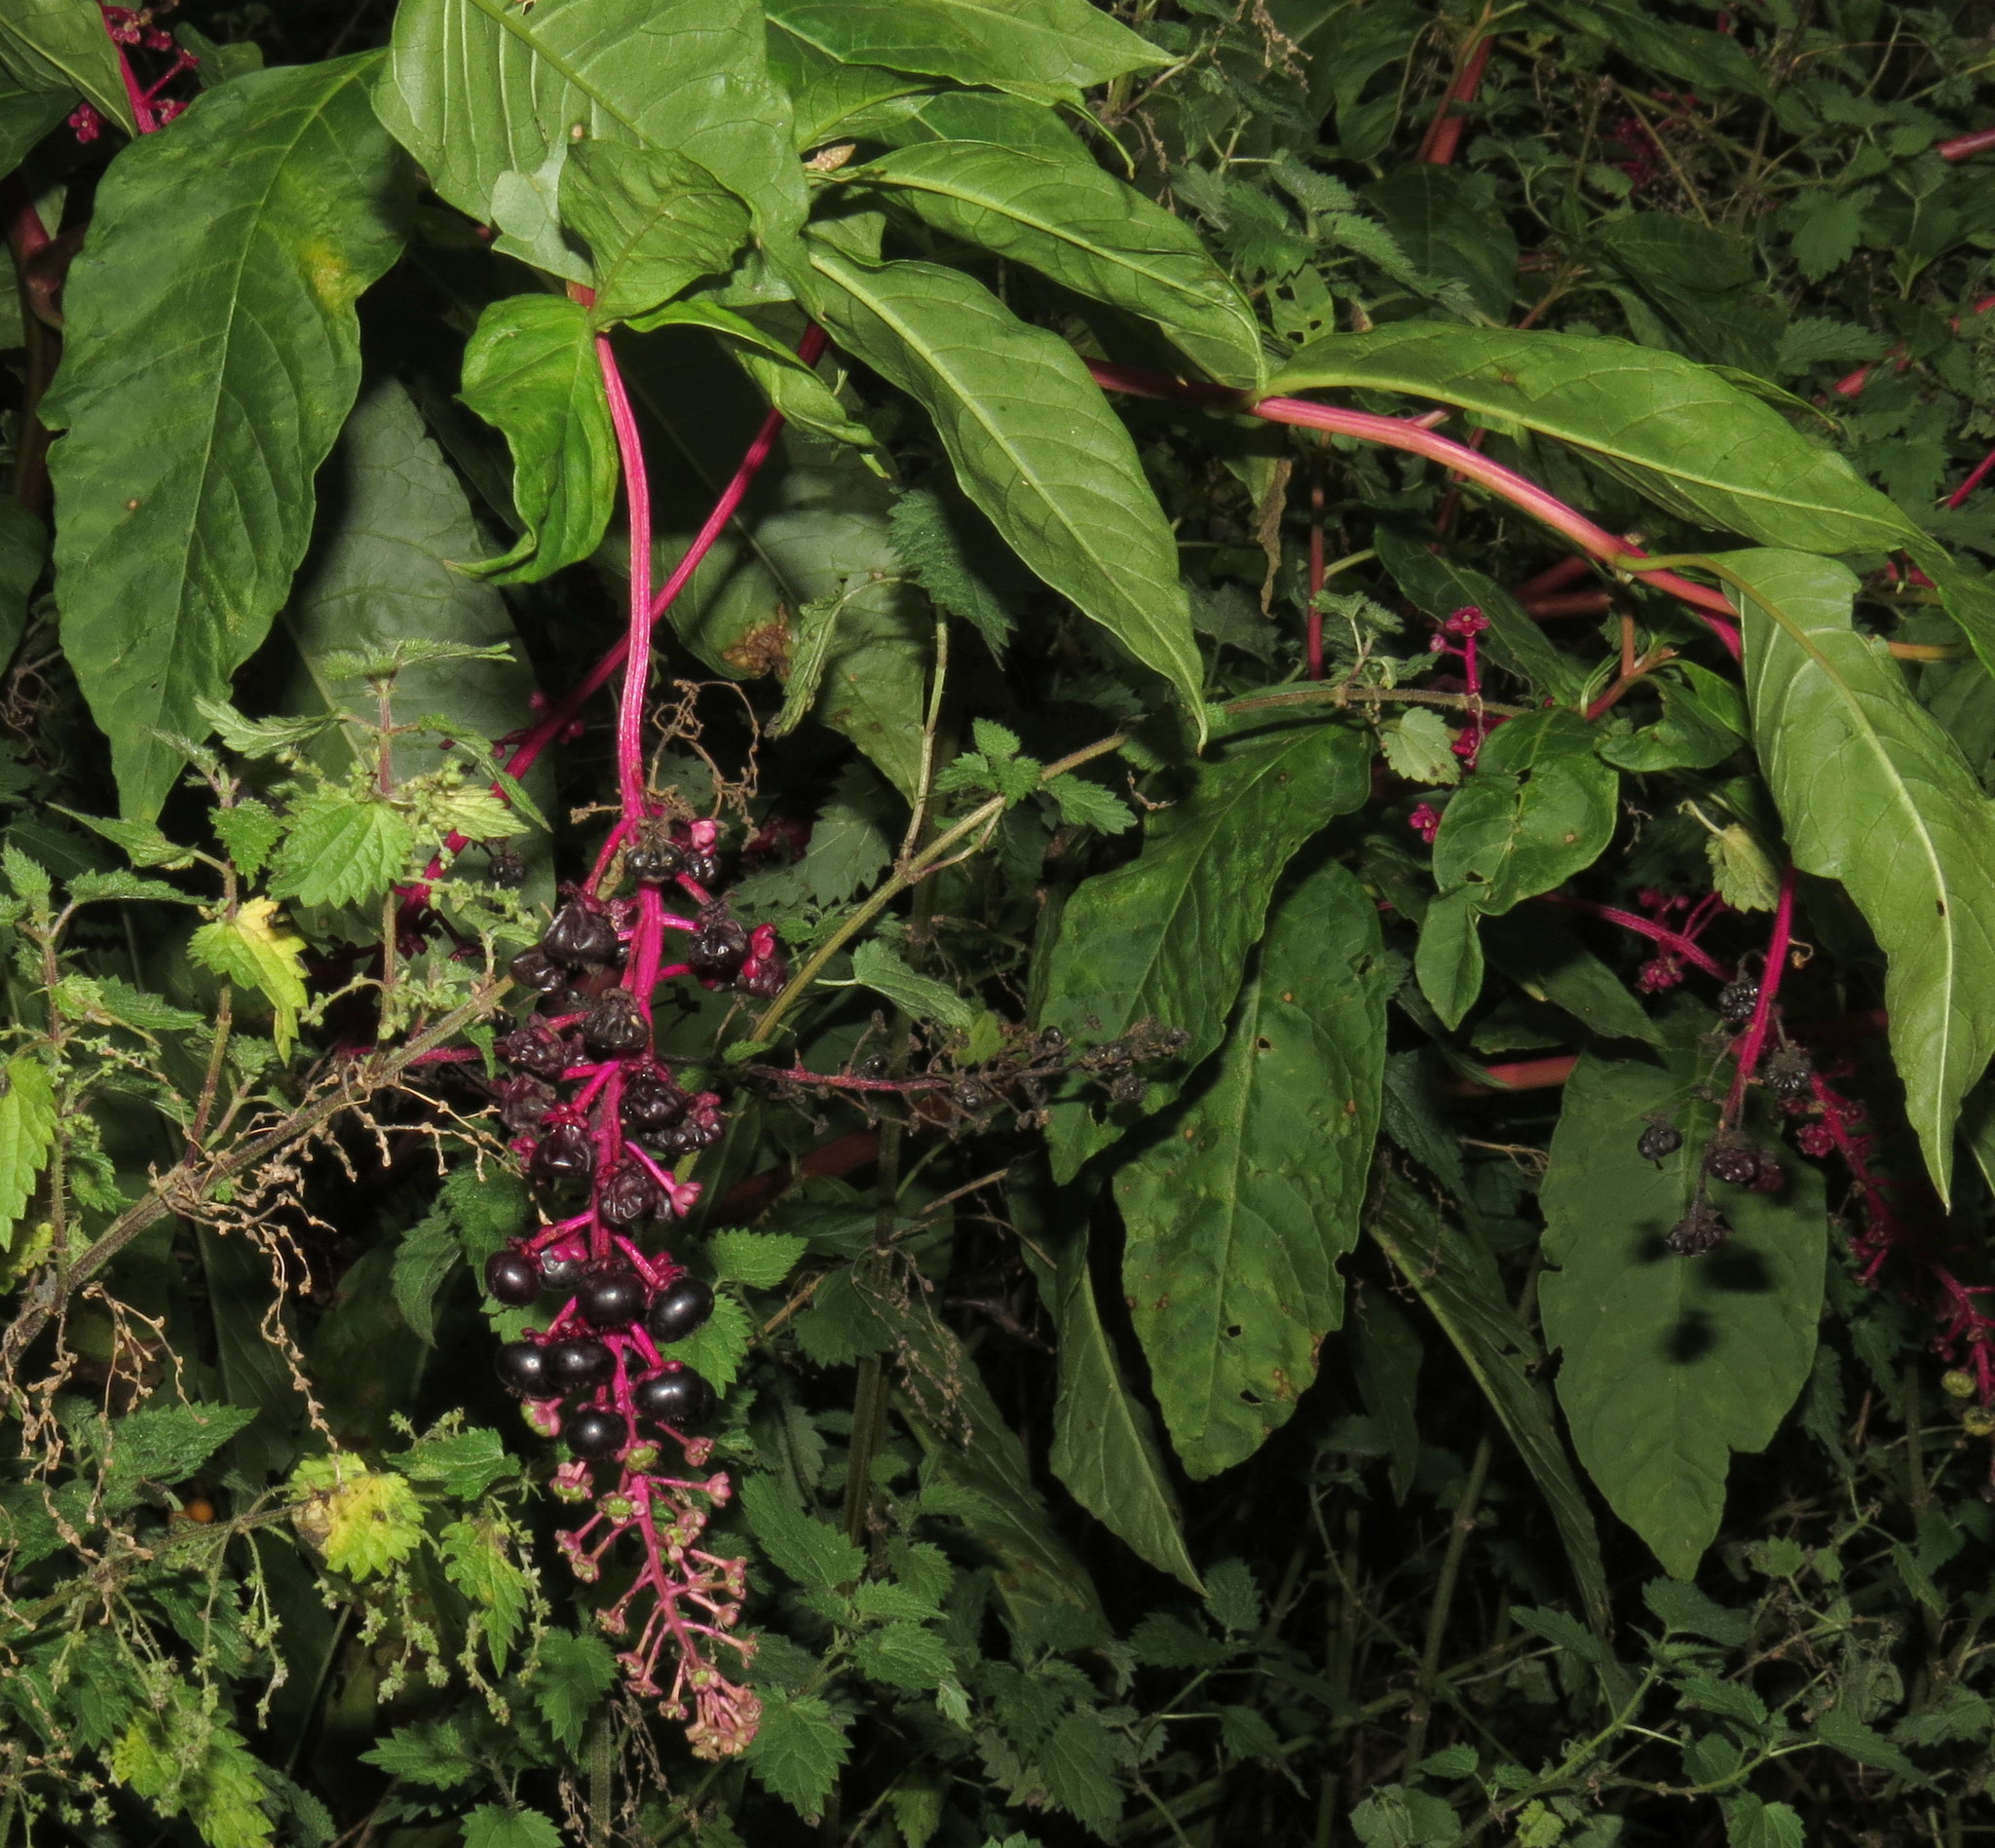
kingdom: Plantae
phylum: Tracheophyta
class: Magnoliopsida
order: Caryophyllales
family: Phytolaccaceae
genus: Phytolacca
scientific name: Phytolacca americana
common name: American pokeweed
